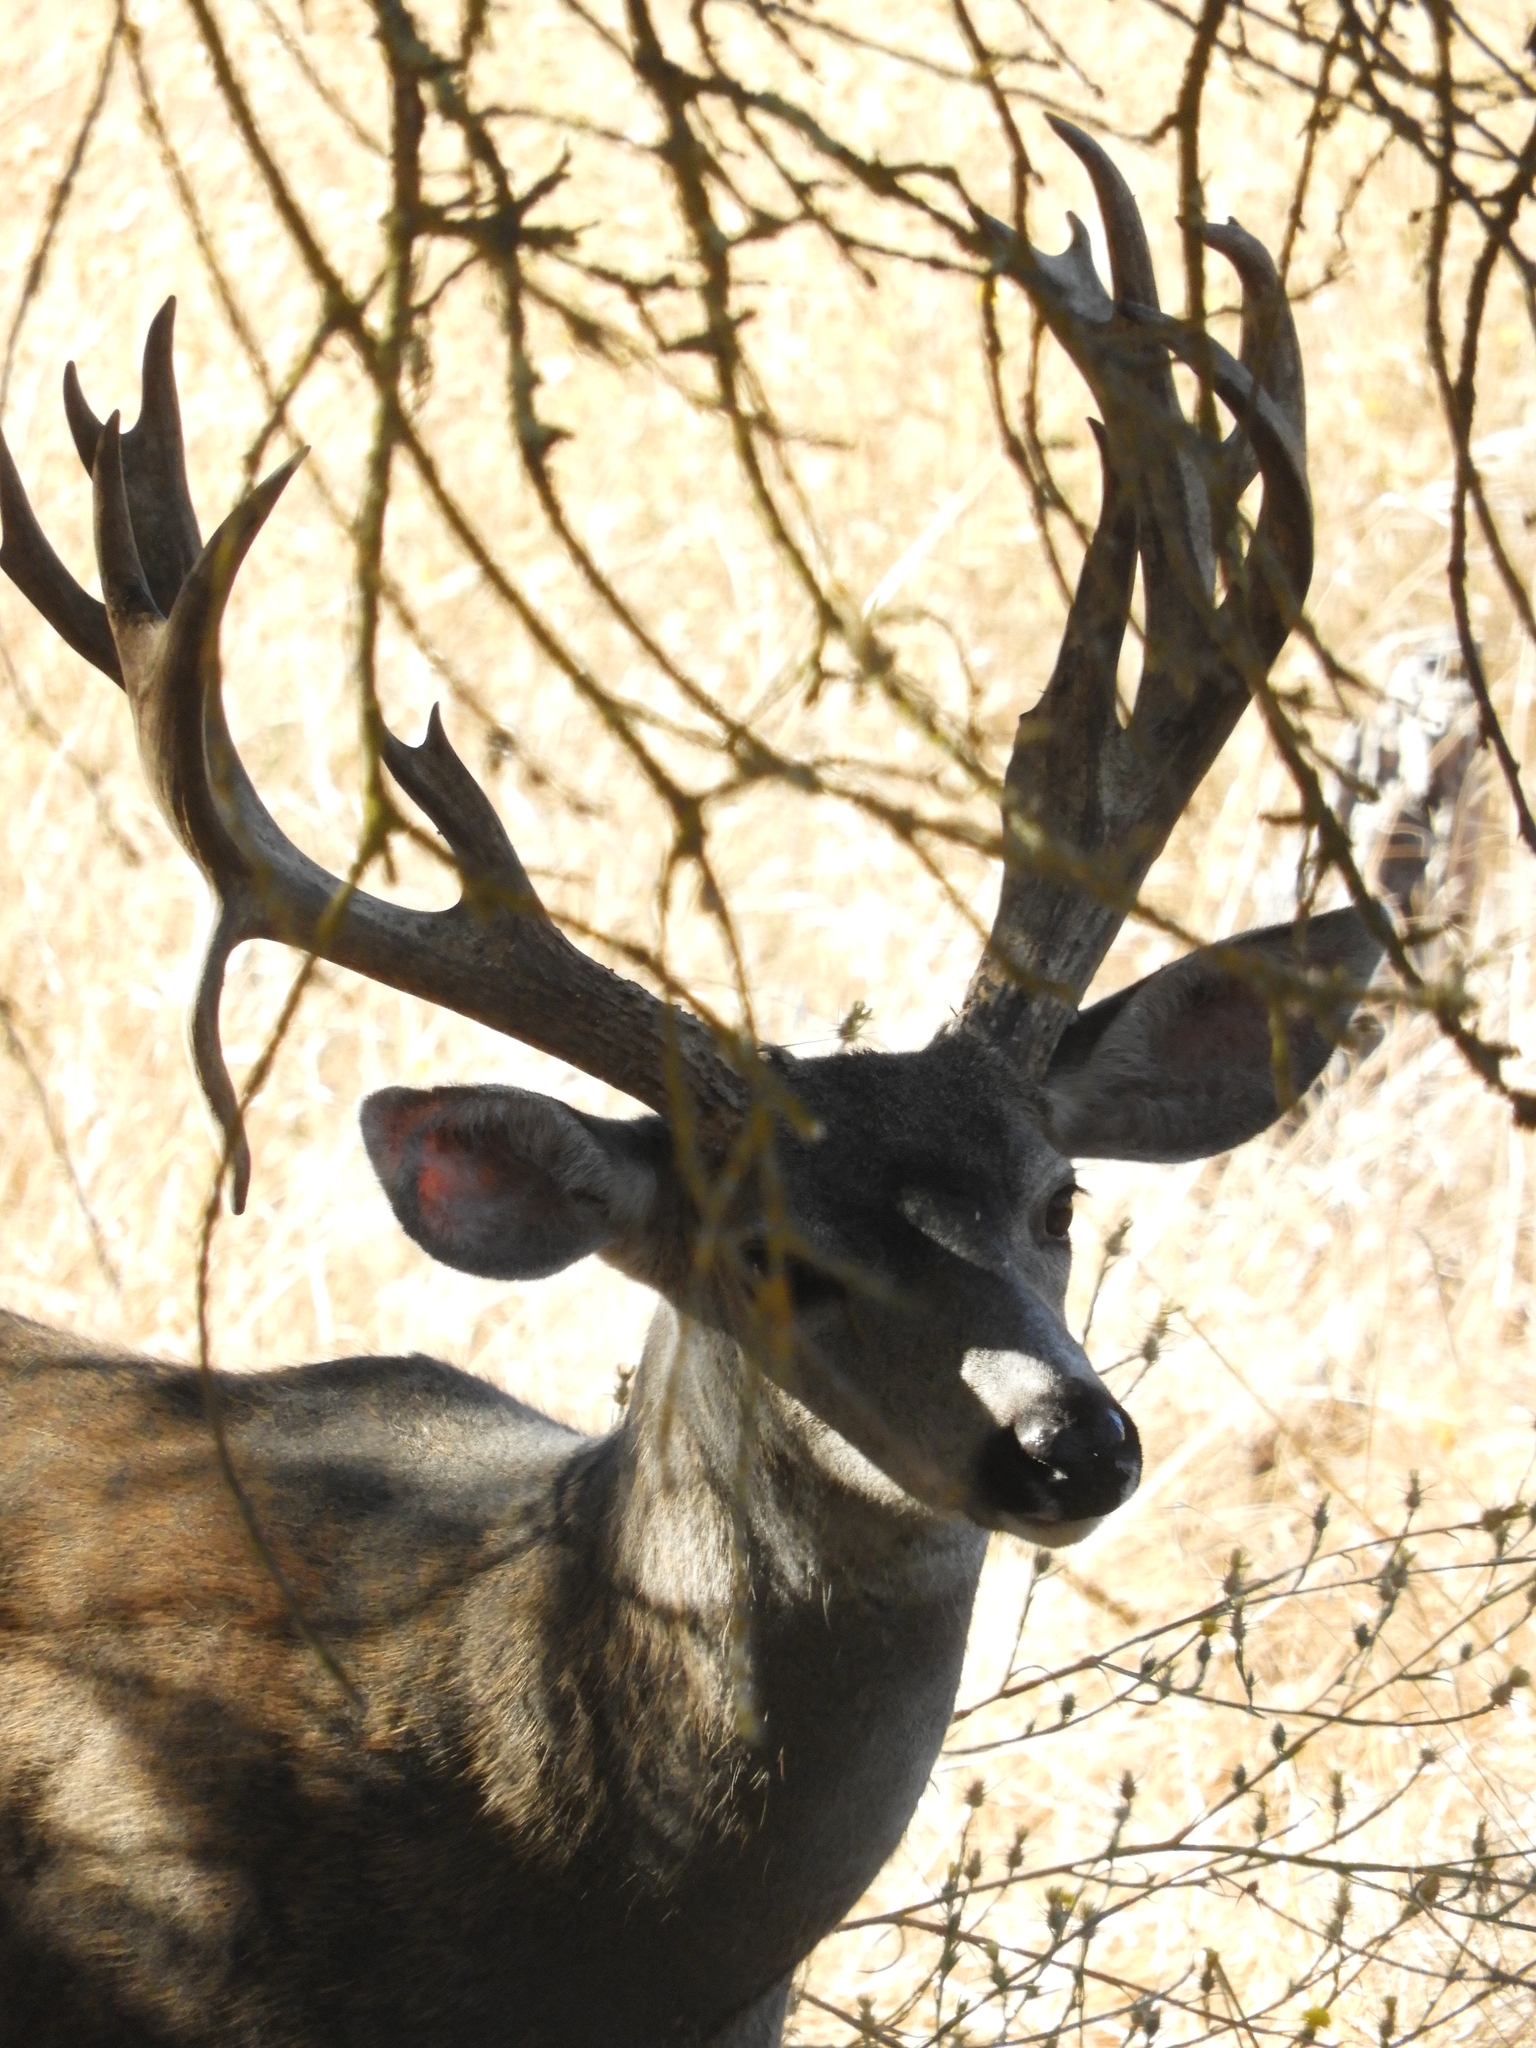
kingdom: Animalia
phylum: Chordata
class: Mammalia
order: Artiodactyla
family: Cervidae
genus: Odocoileus
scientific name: Odocoileus hemionus
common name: Mule deer
